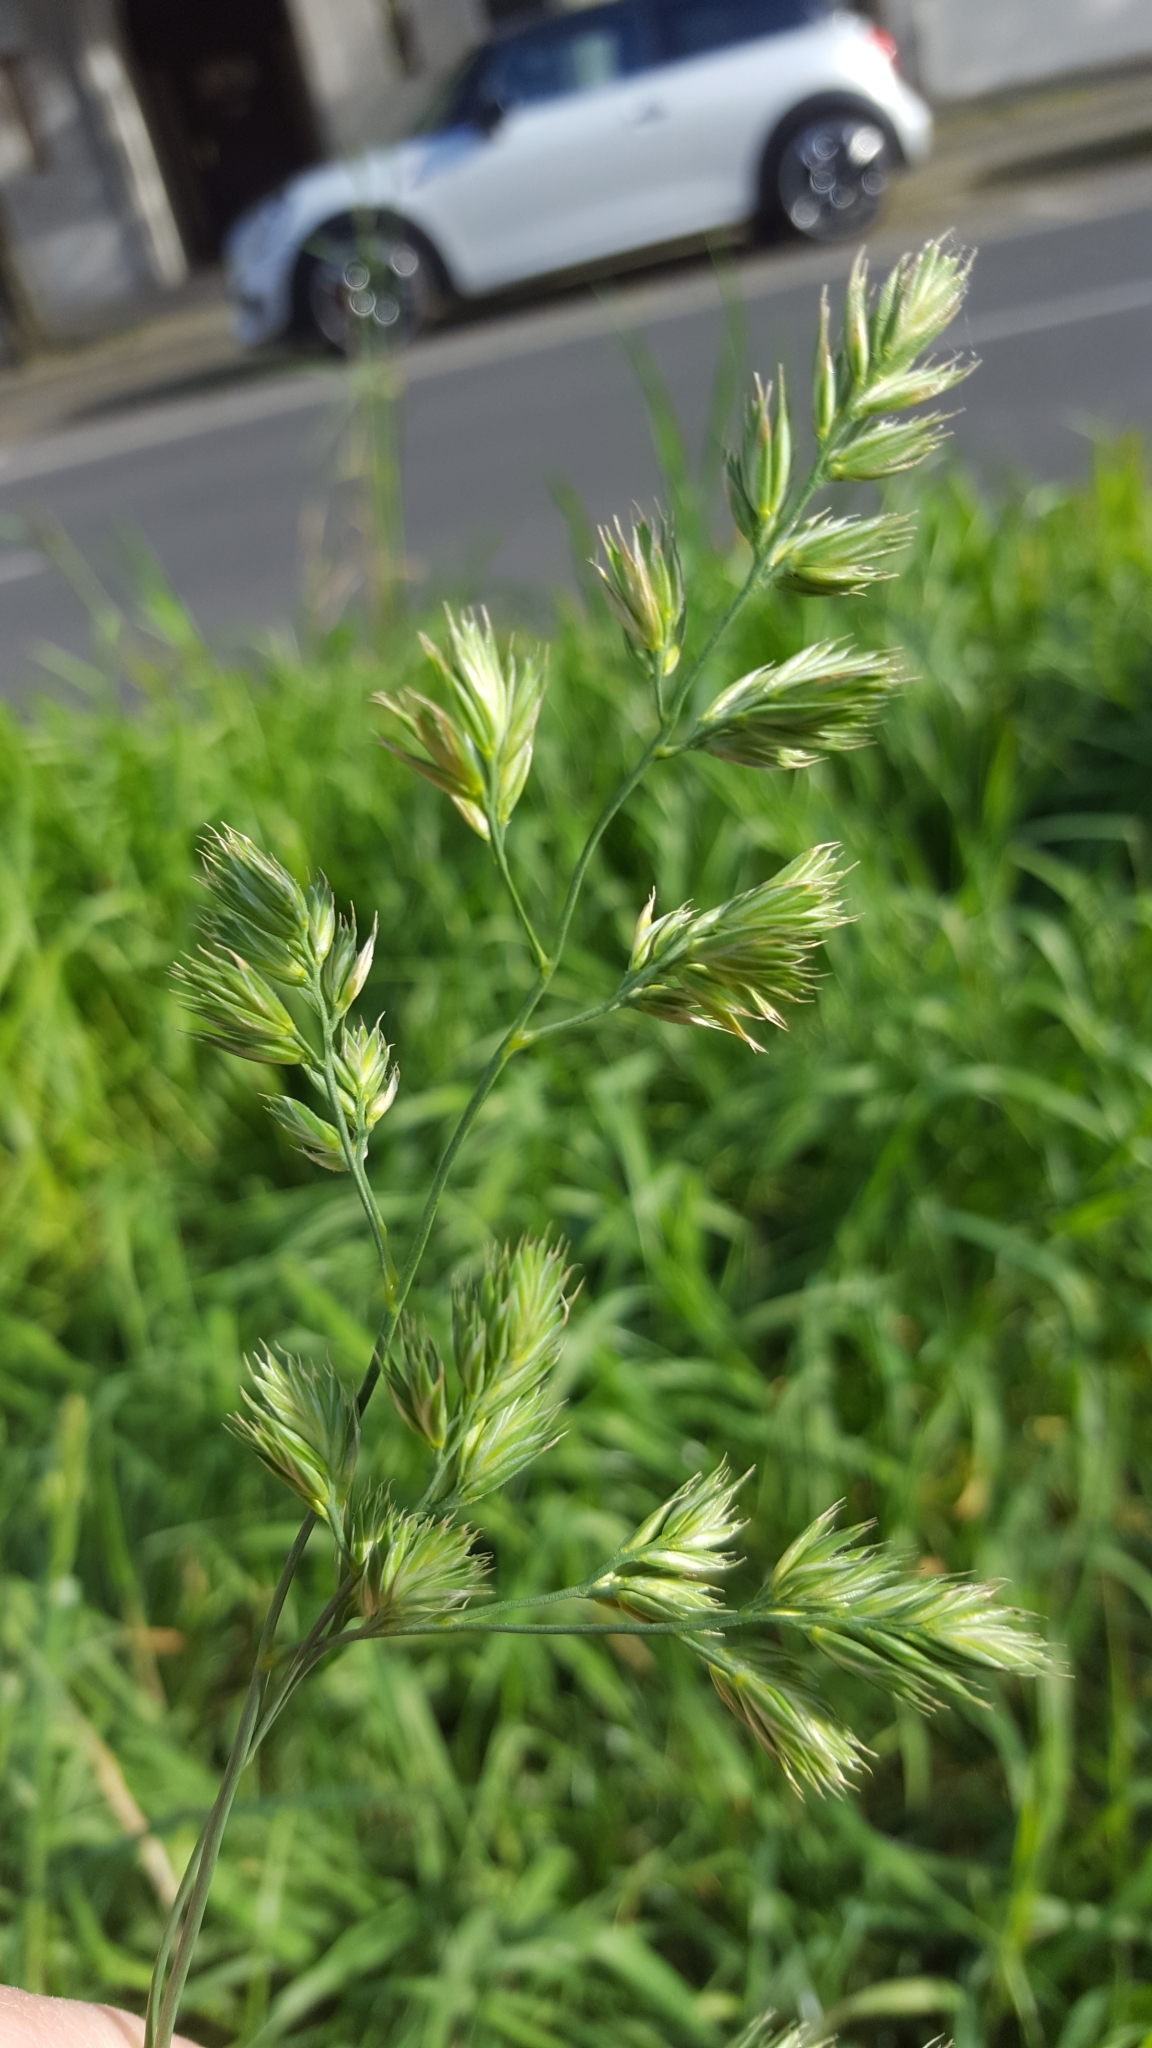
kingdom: Plantae
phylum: Tracheophyta
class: Liliopsida
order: Poales
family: Poaceae
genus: Dactylis
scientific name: Dactylis glomerata
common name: Orchardgrass
